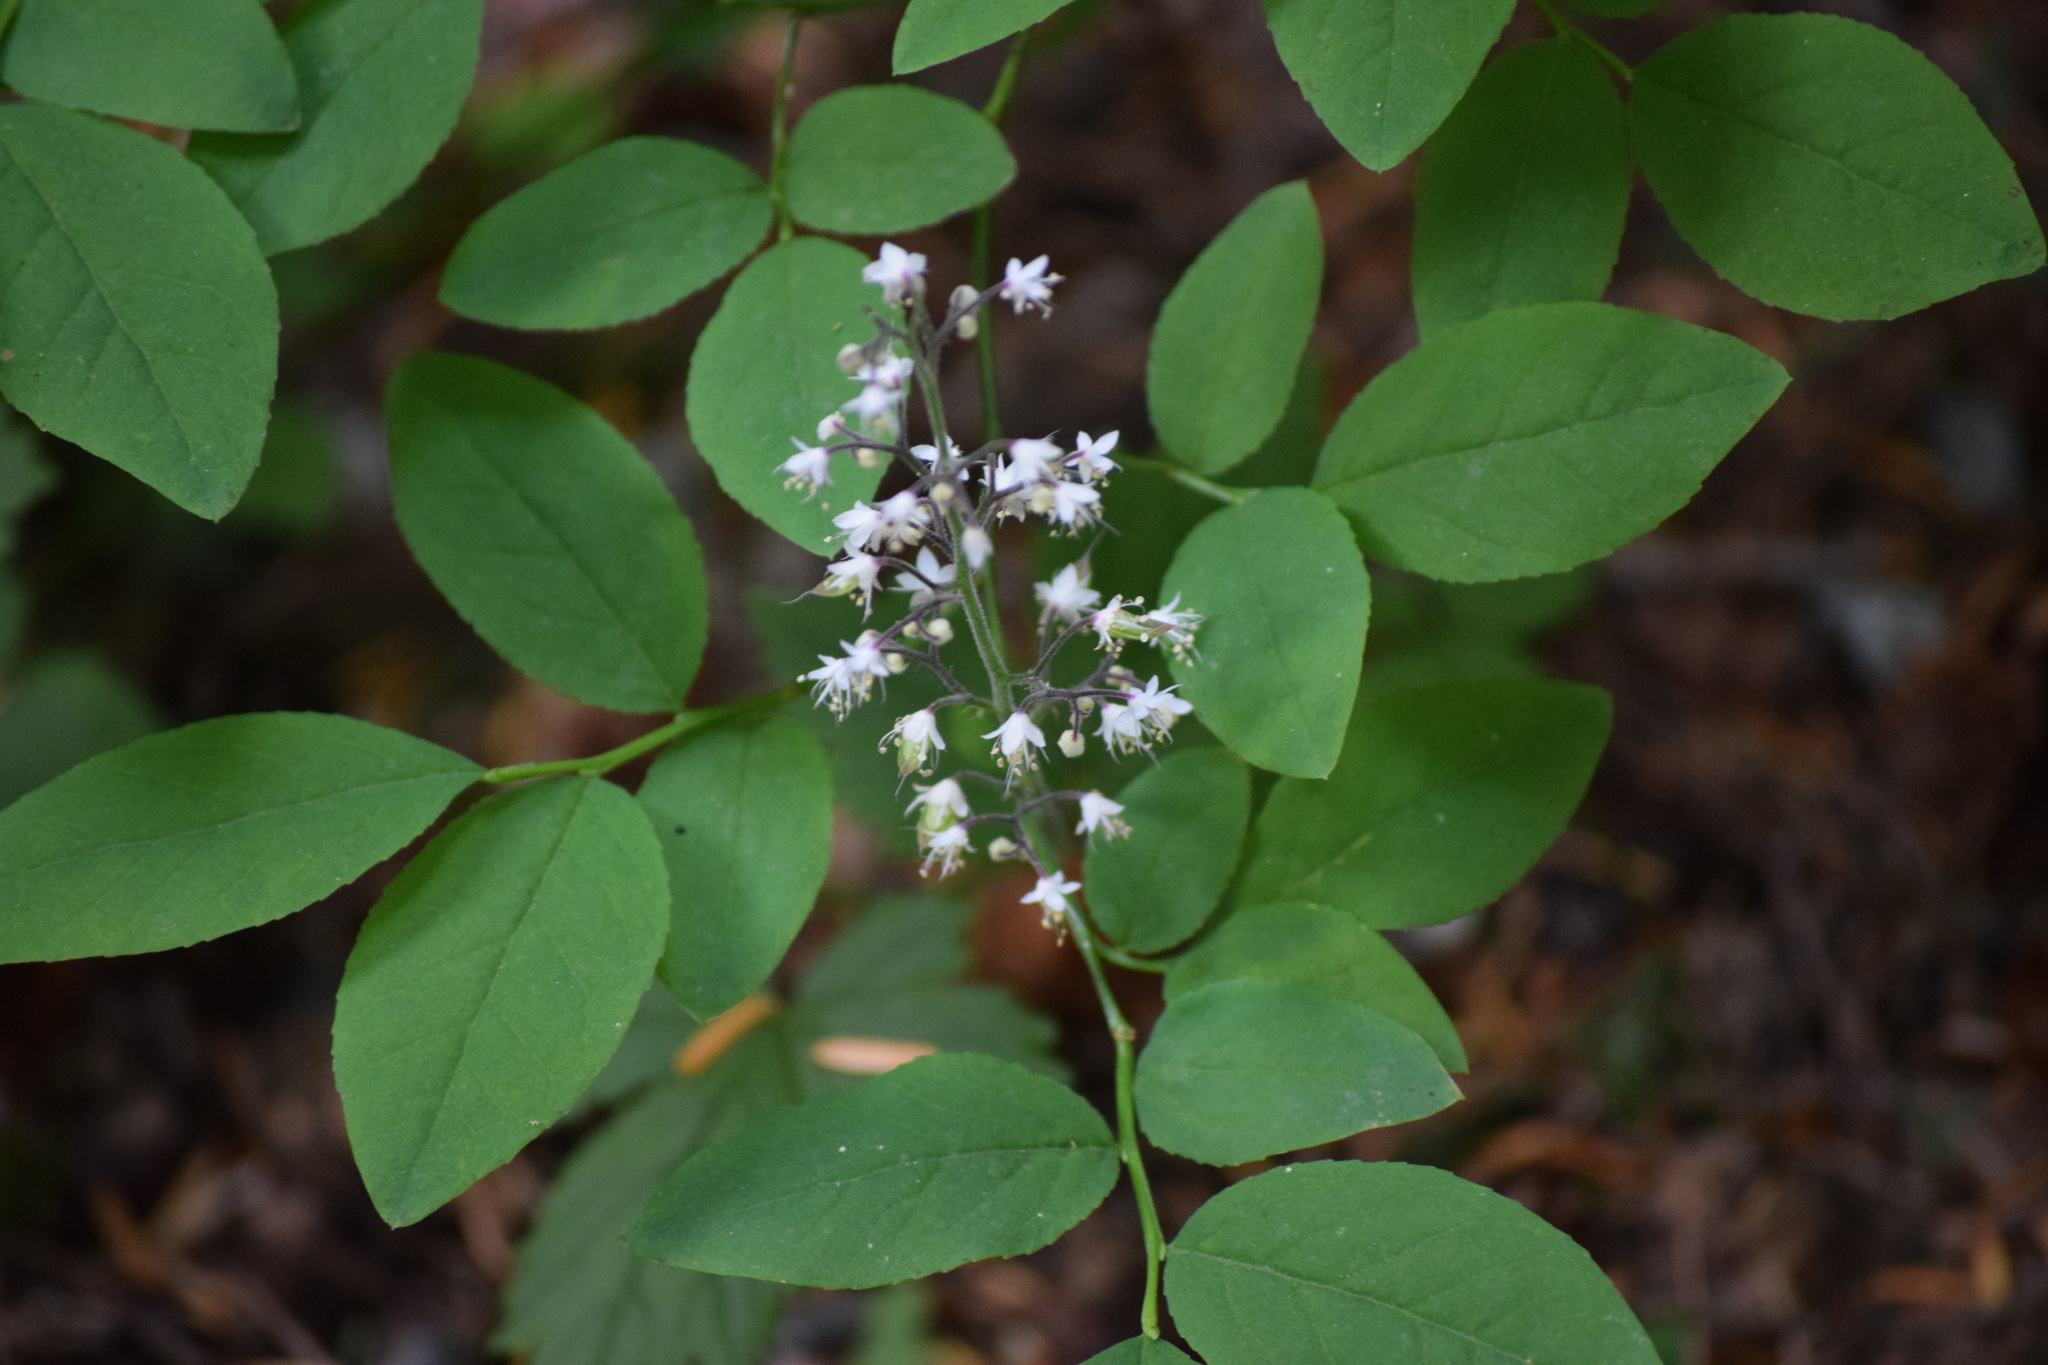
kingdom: Plantae
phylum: Tracheophyta
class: Magnoliopsida
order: Saxifragales
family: Saxifragaceae
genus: Tiarella
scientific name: Tiarella trifoliata
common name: Sugar-scoop
